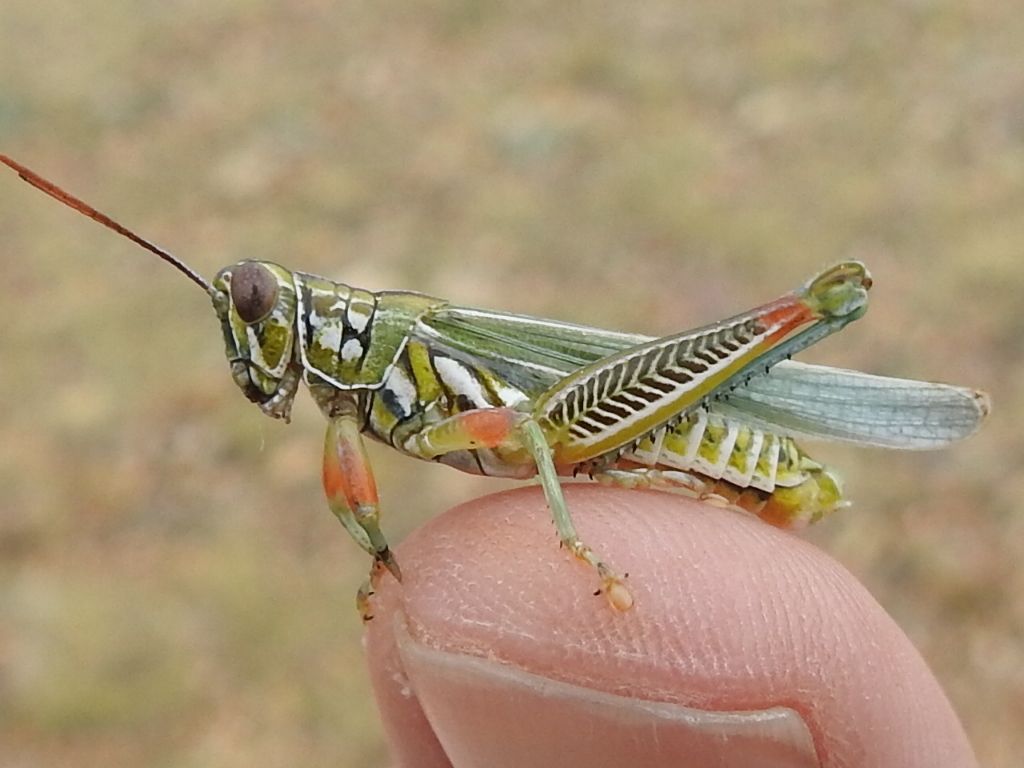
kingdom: Animalia
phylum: Arthropoda
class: Insecta
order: Orthoptera
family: Acrididae
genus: Hesperotettix
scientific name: Hesperotettix viridis
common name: Meadow purple-striped grasshopper
